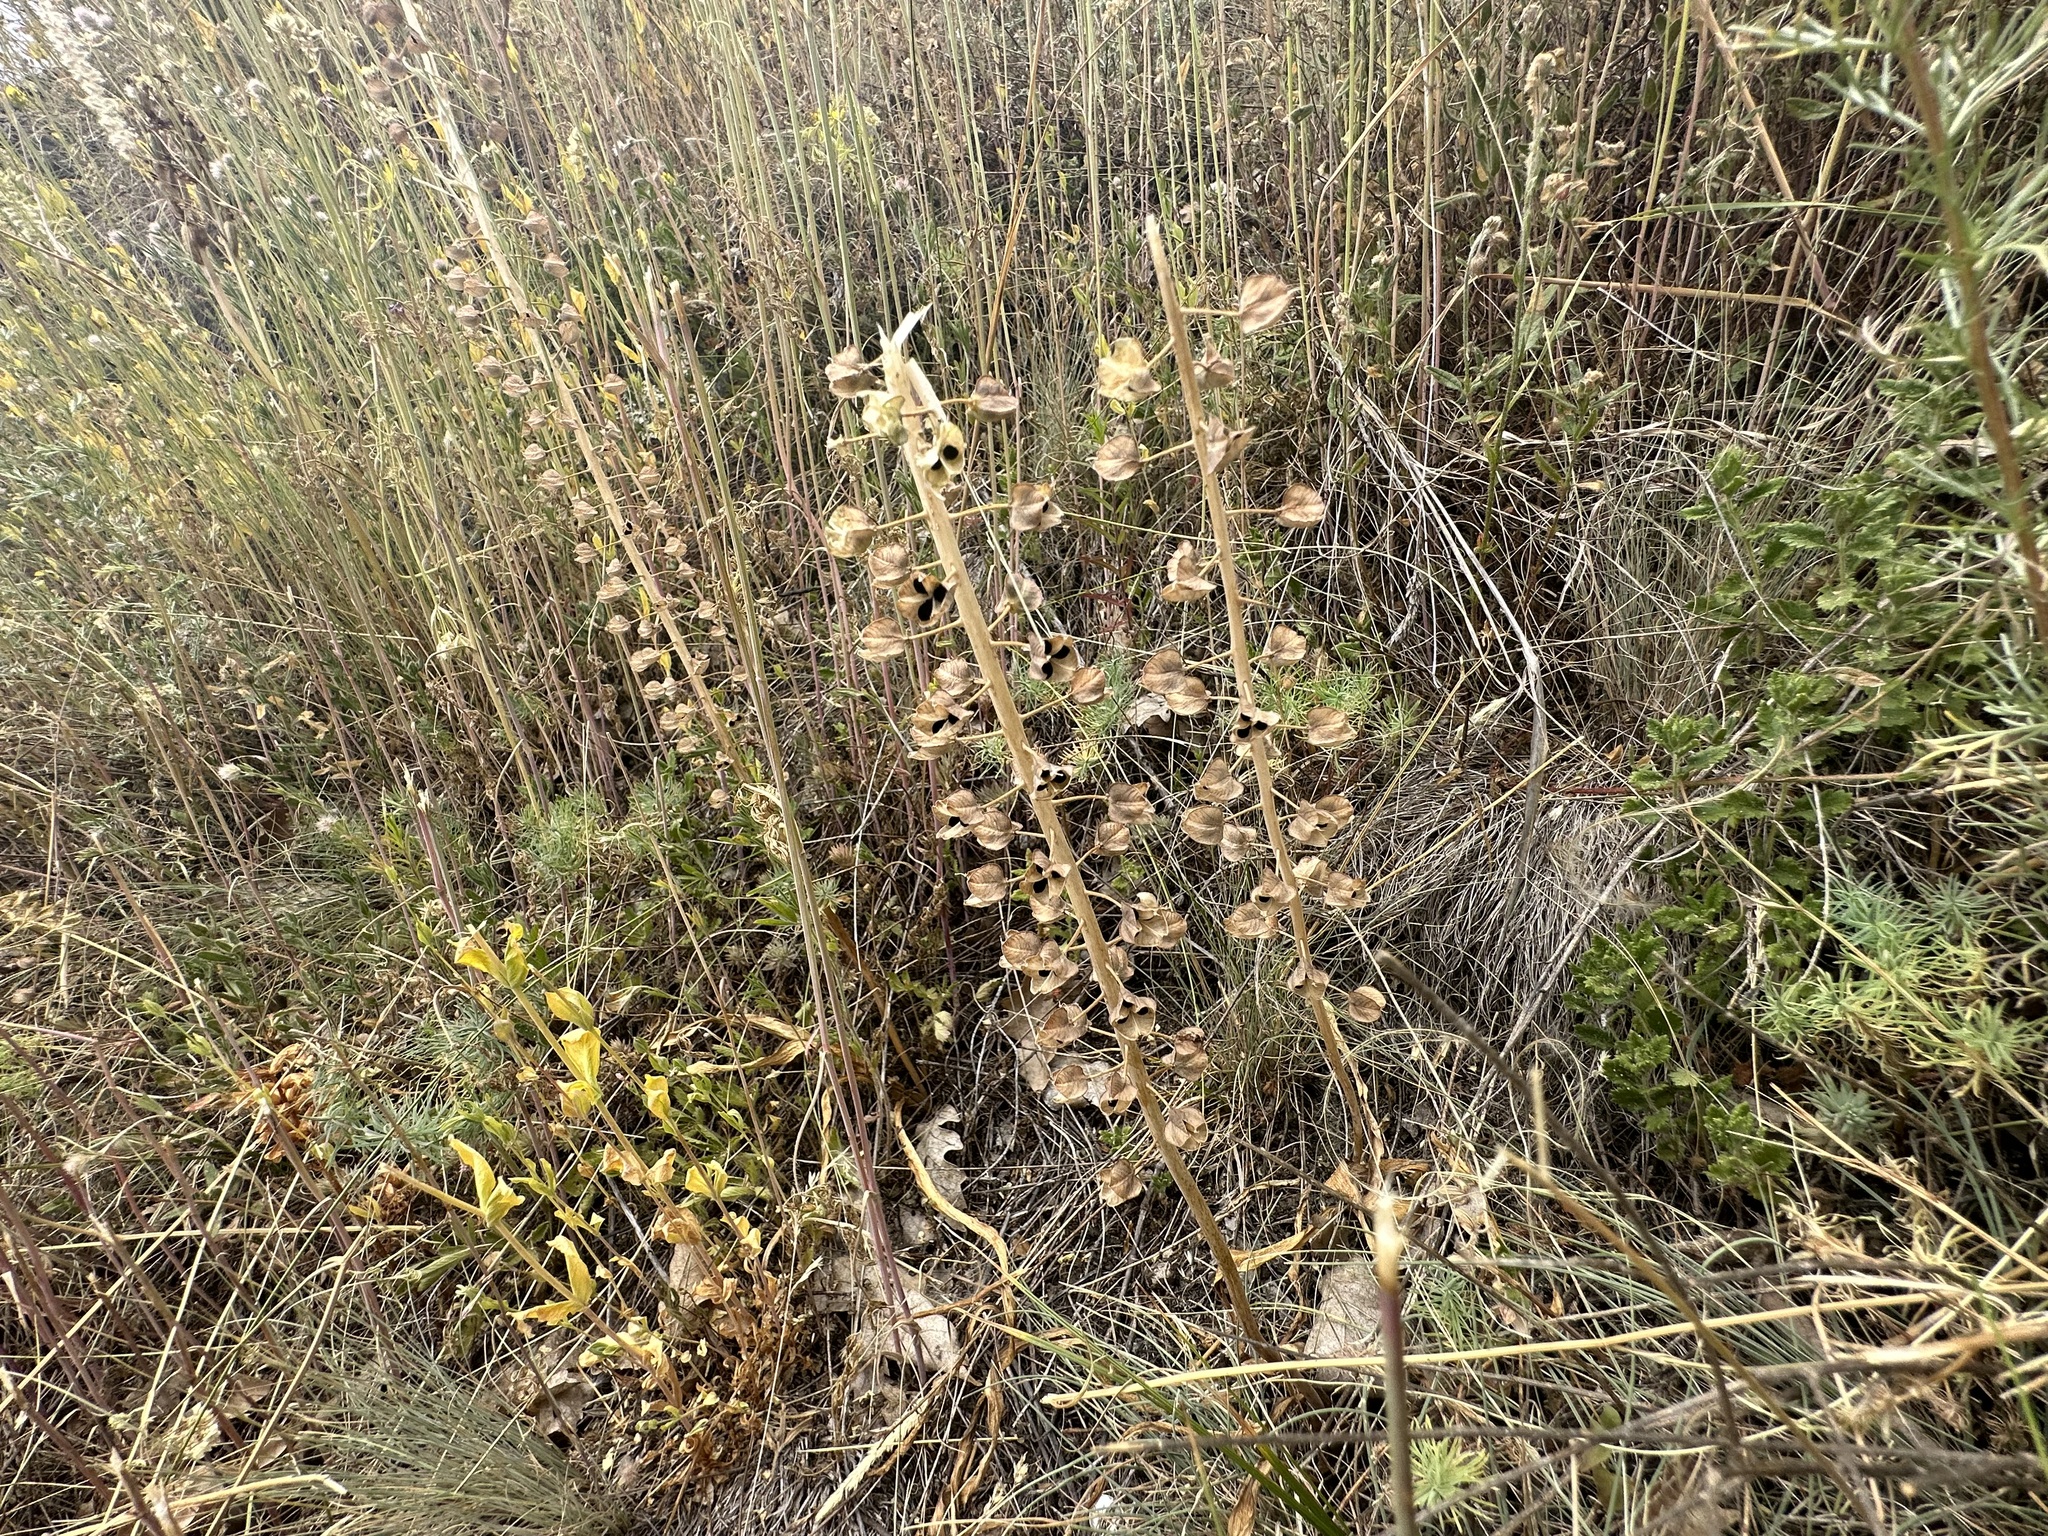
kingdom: Plantae
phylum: Tracheophyta
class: Liliopsida
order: Asparagales
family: Asparagaceae
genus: Muscari
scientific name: Muscari comosum
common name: Tassel hyacinth
